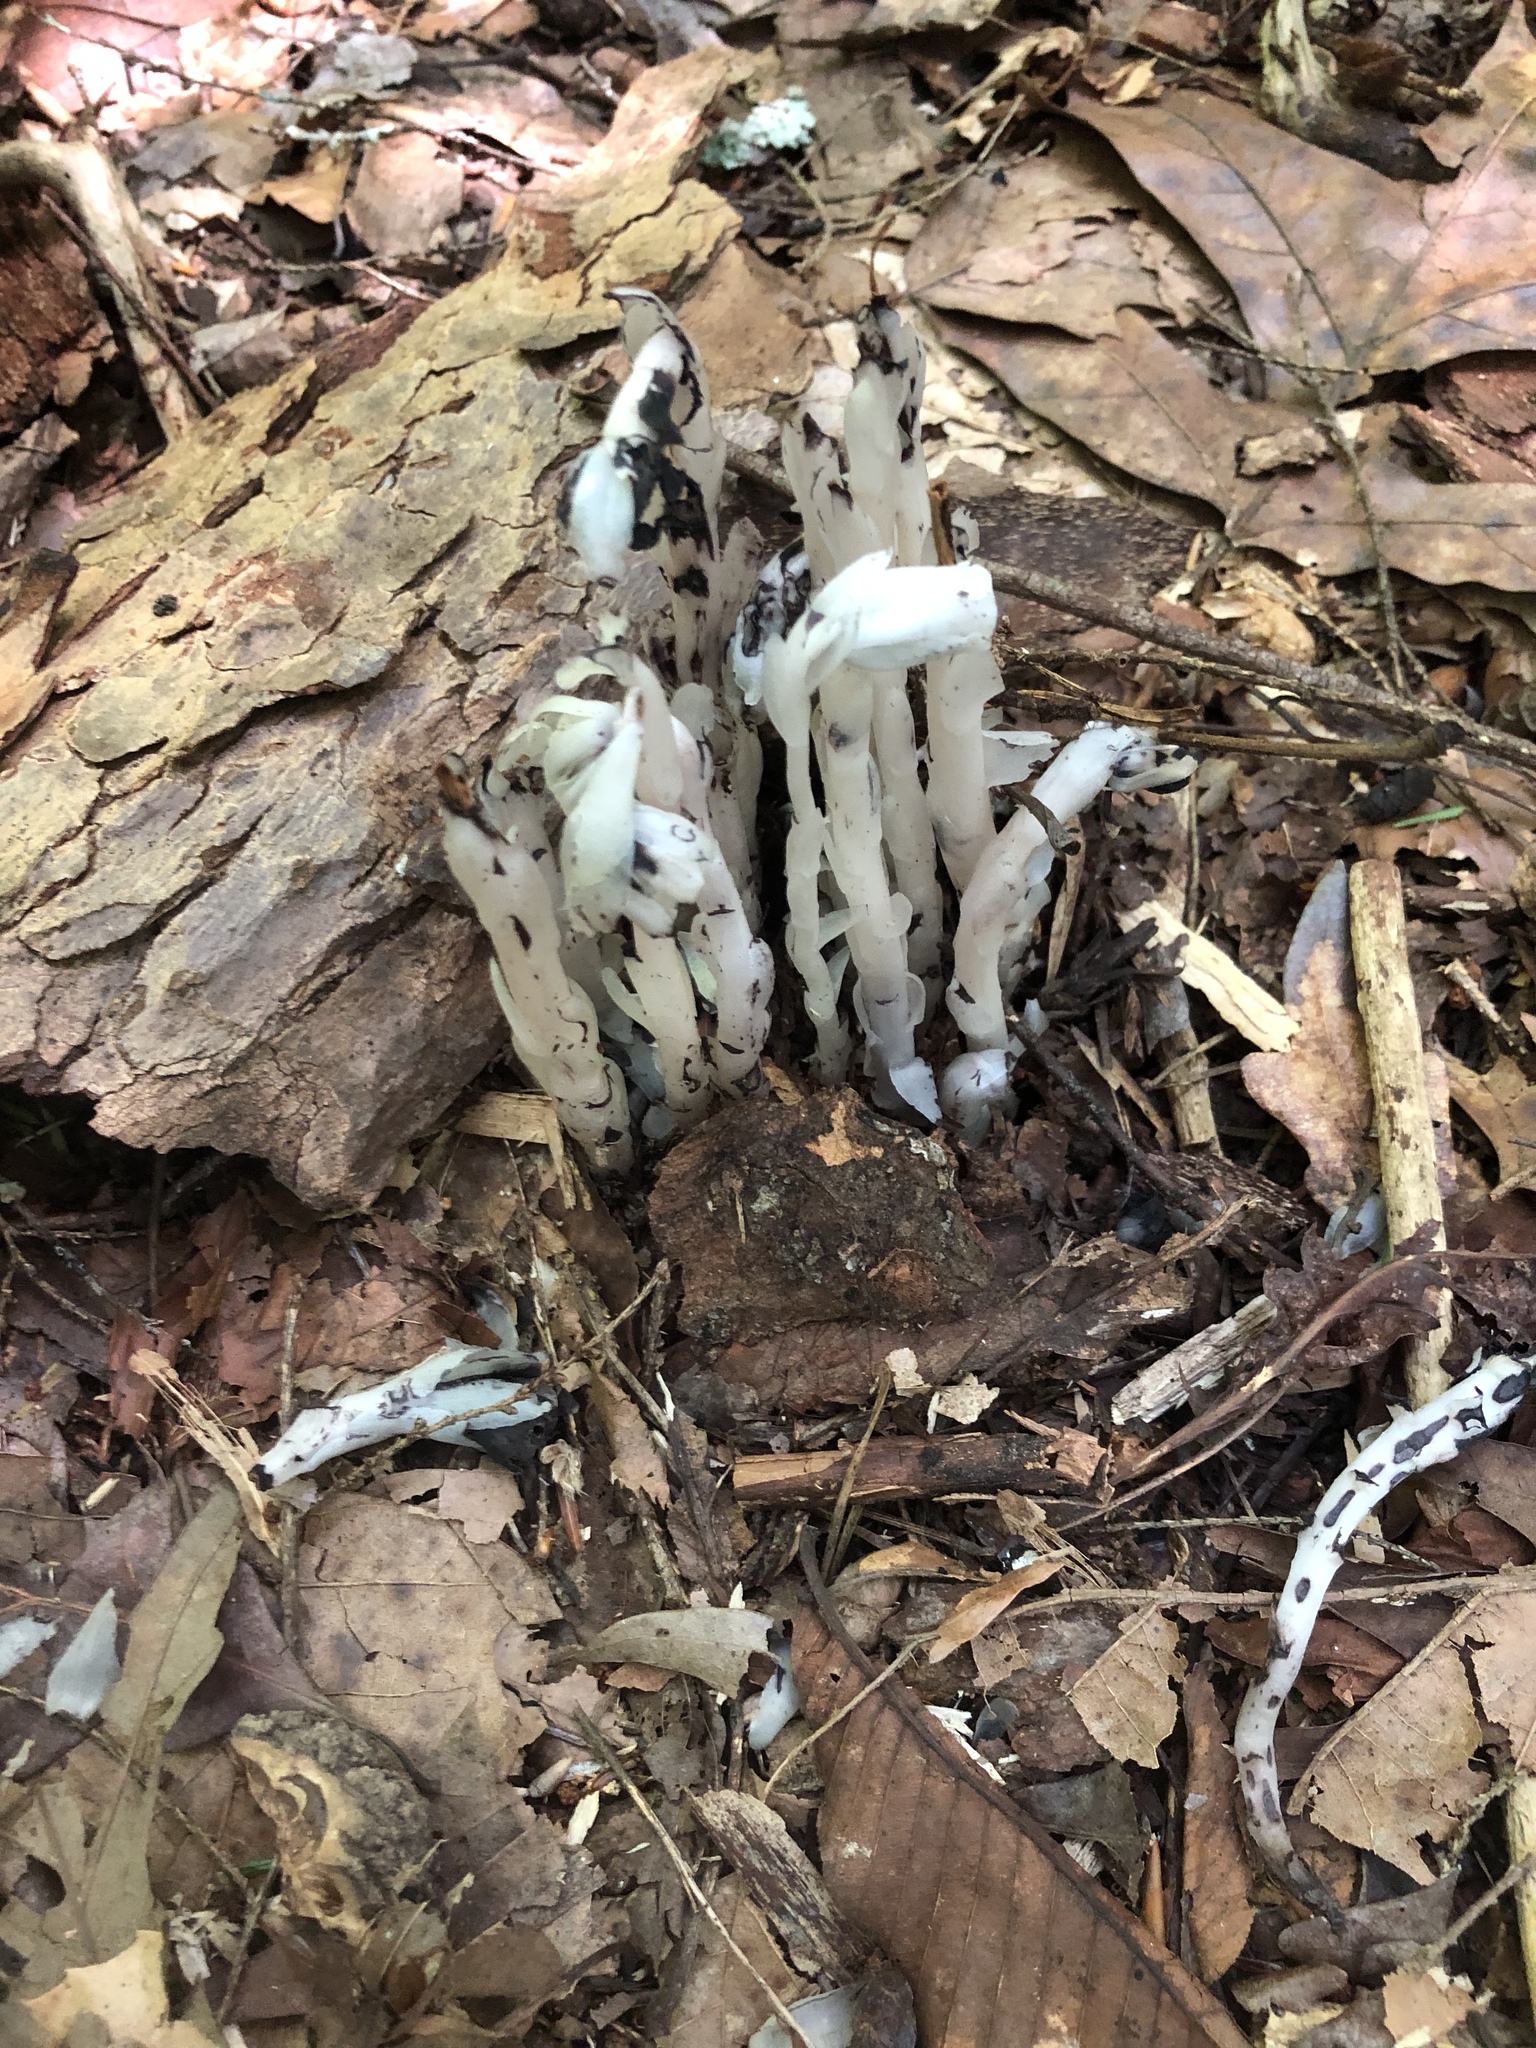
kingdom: Plantae
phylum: Tracheophyta
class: Magnoliopsida
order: Ericales
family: Ericaceae
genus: Monotropa
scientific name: Monotropa uniflora
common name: Convulsion root
